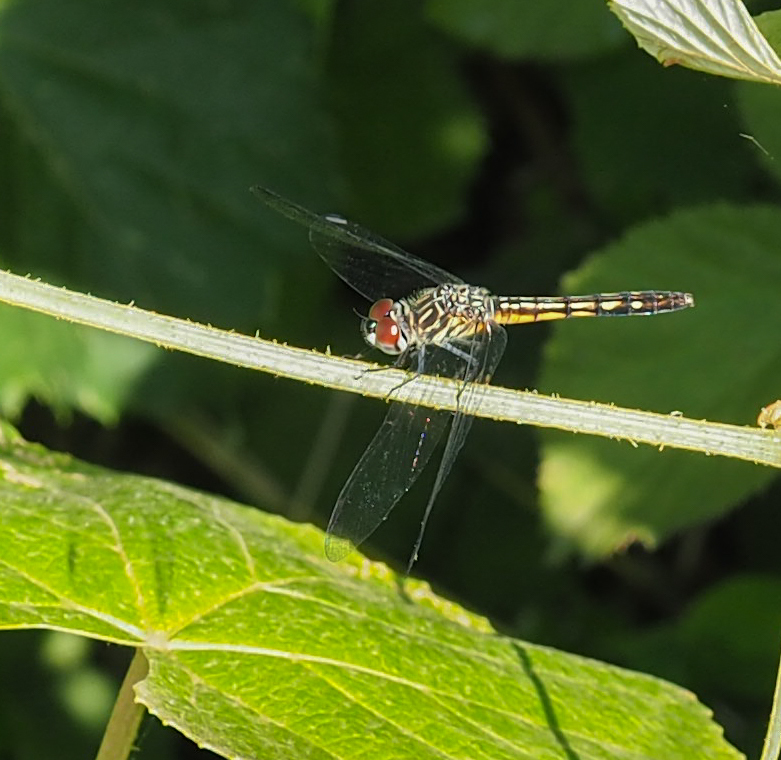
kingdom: Animalia
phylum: Arthropoda
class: Insecta
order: Odonata
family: Libellulidae
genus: Pachydiplax
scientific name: Pachydiplax longipennis
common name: Blue dasher
